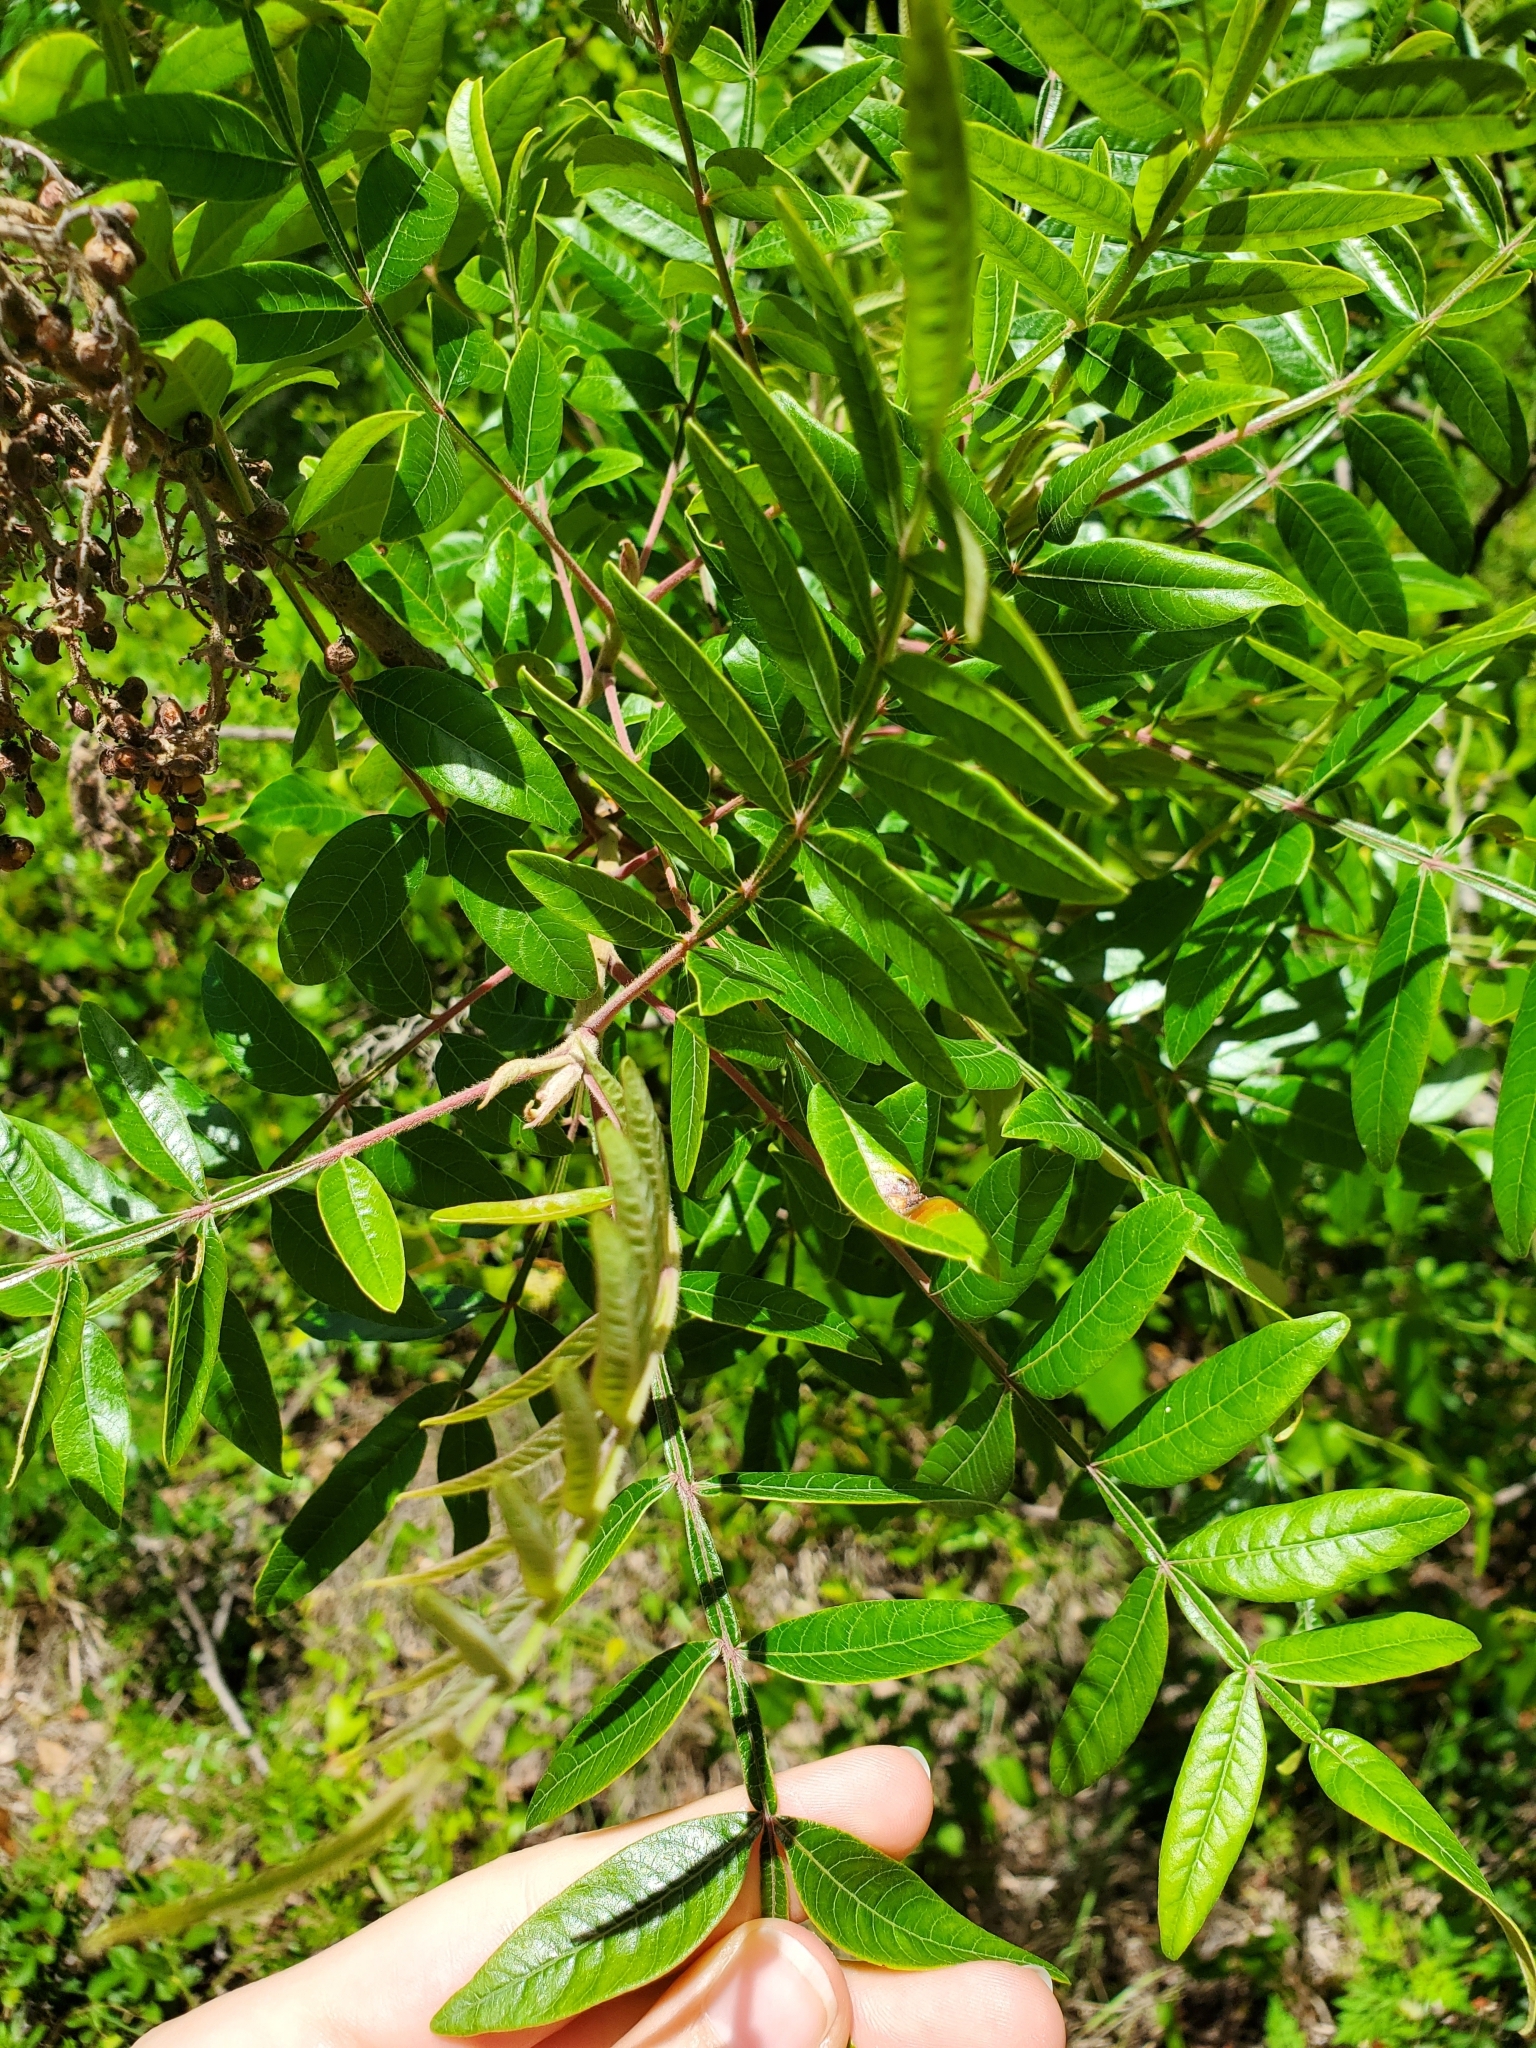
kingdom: Plantae
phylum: Tracheophyta
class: Magnoliopsida
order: Sapindales
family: Anacardiaceae
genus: Rhus
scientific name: Rhus copallina
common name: Shining sumac
